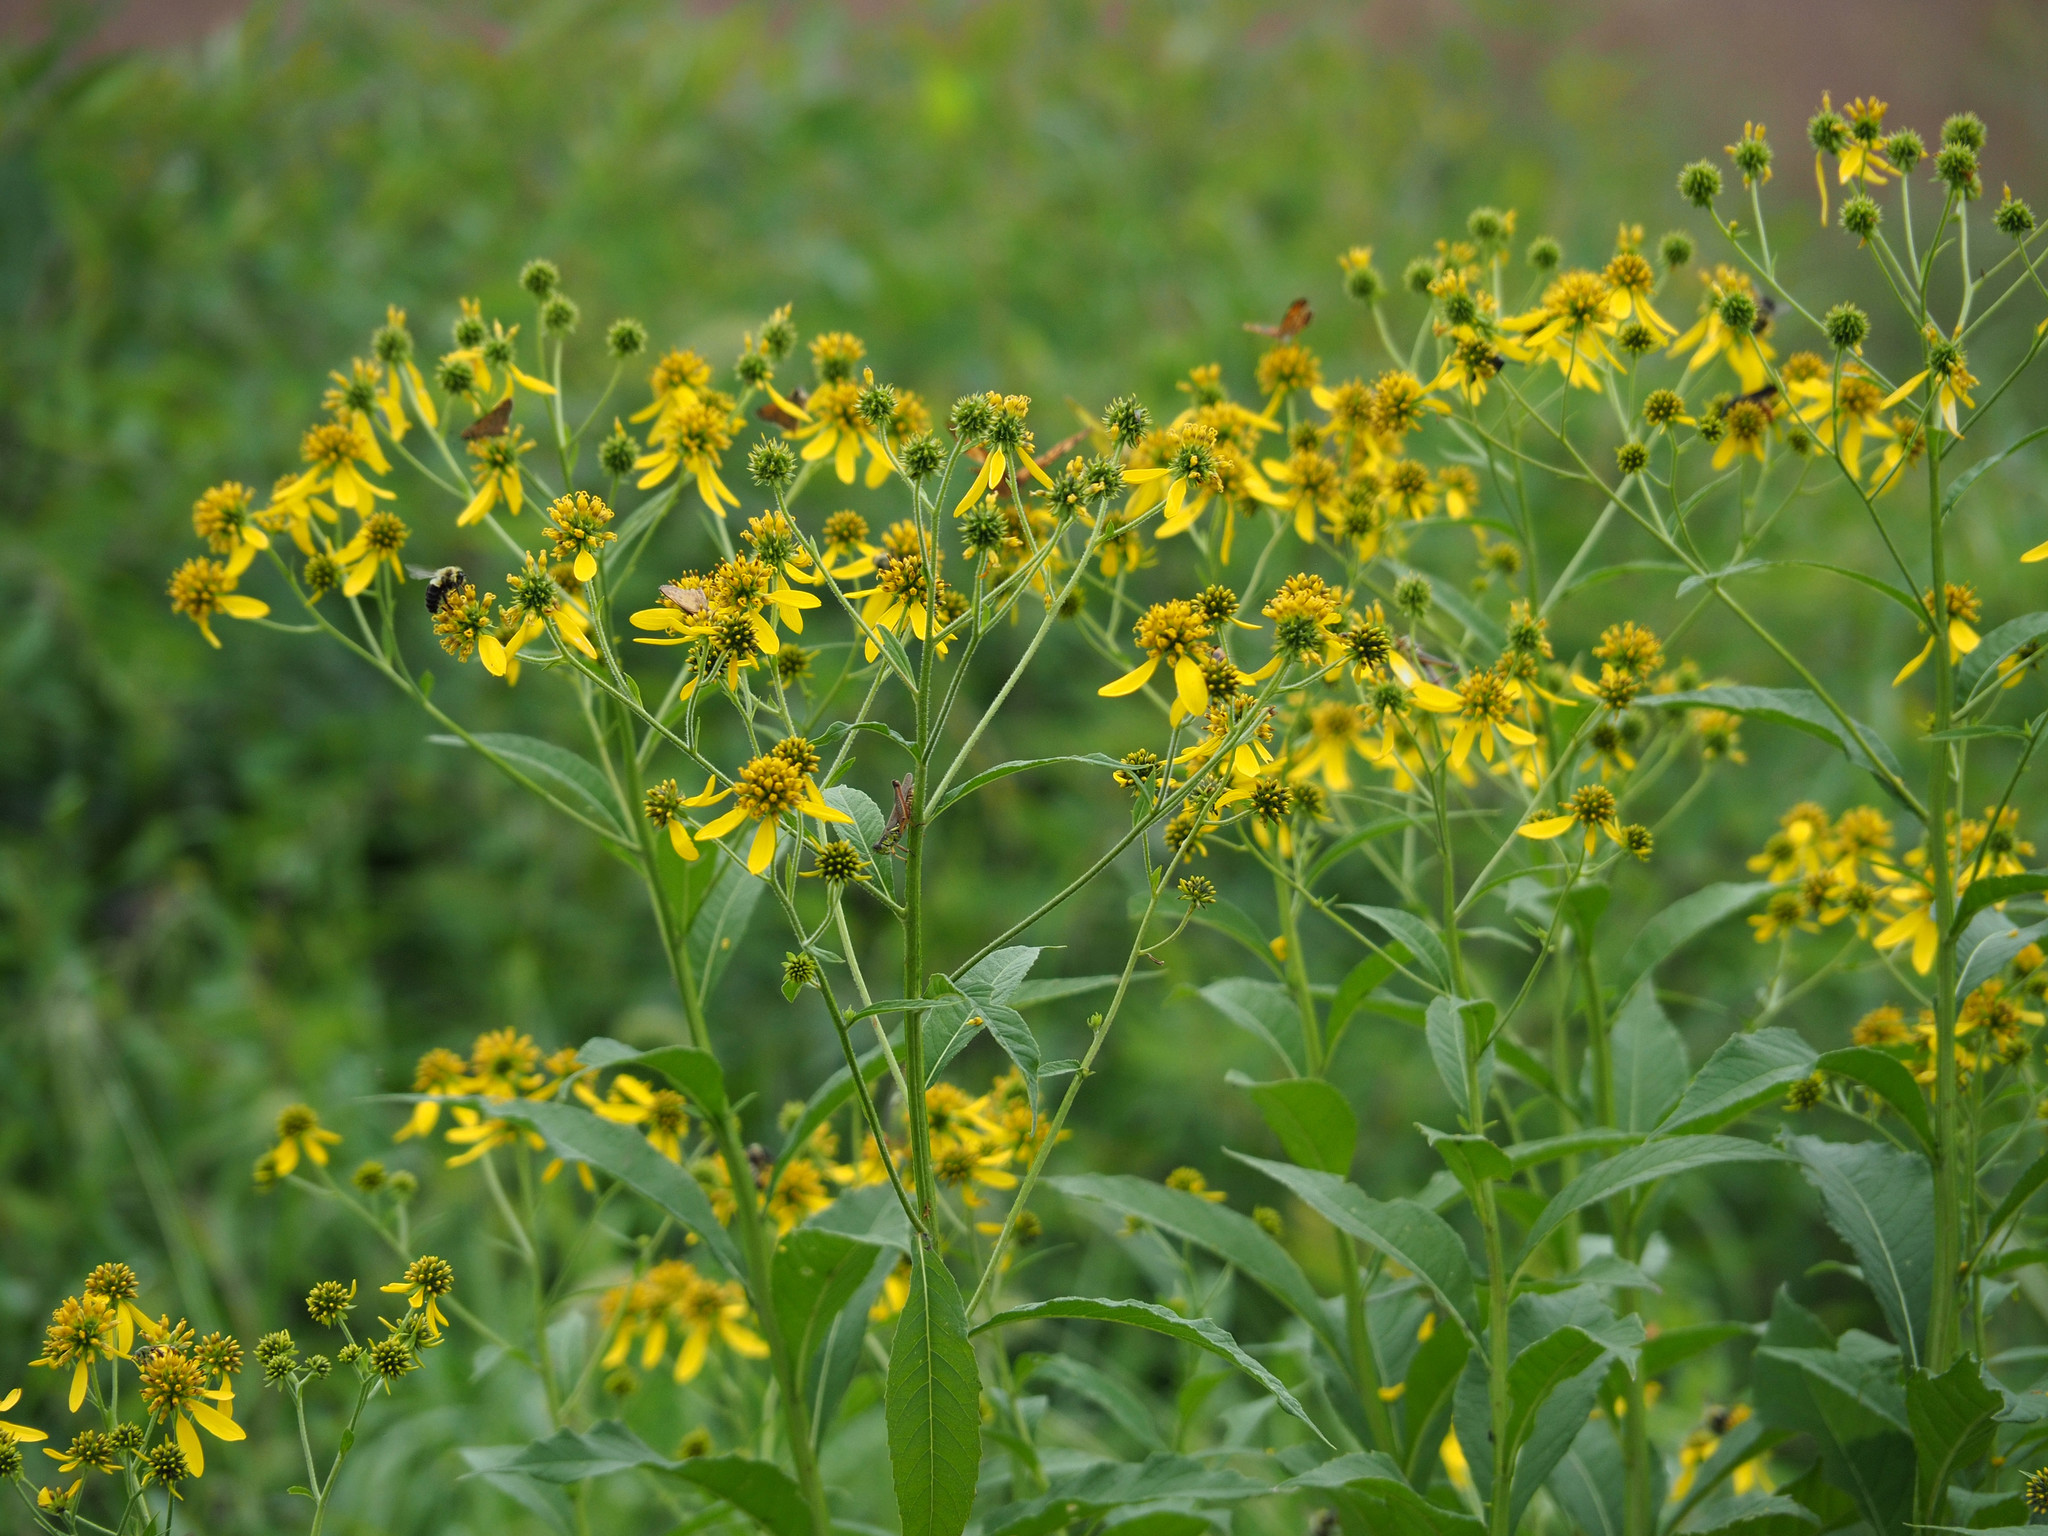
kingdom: Plantae
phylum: Tracheophyta
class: Magnoliopsida
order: Asterales
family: Asteraceae
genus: Verbesina
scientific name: Verbesina alternifolia
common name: Wingstem
